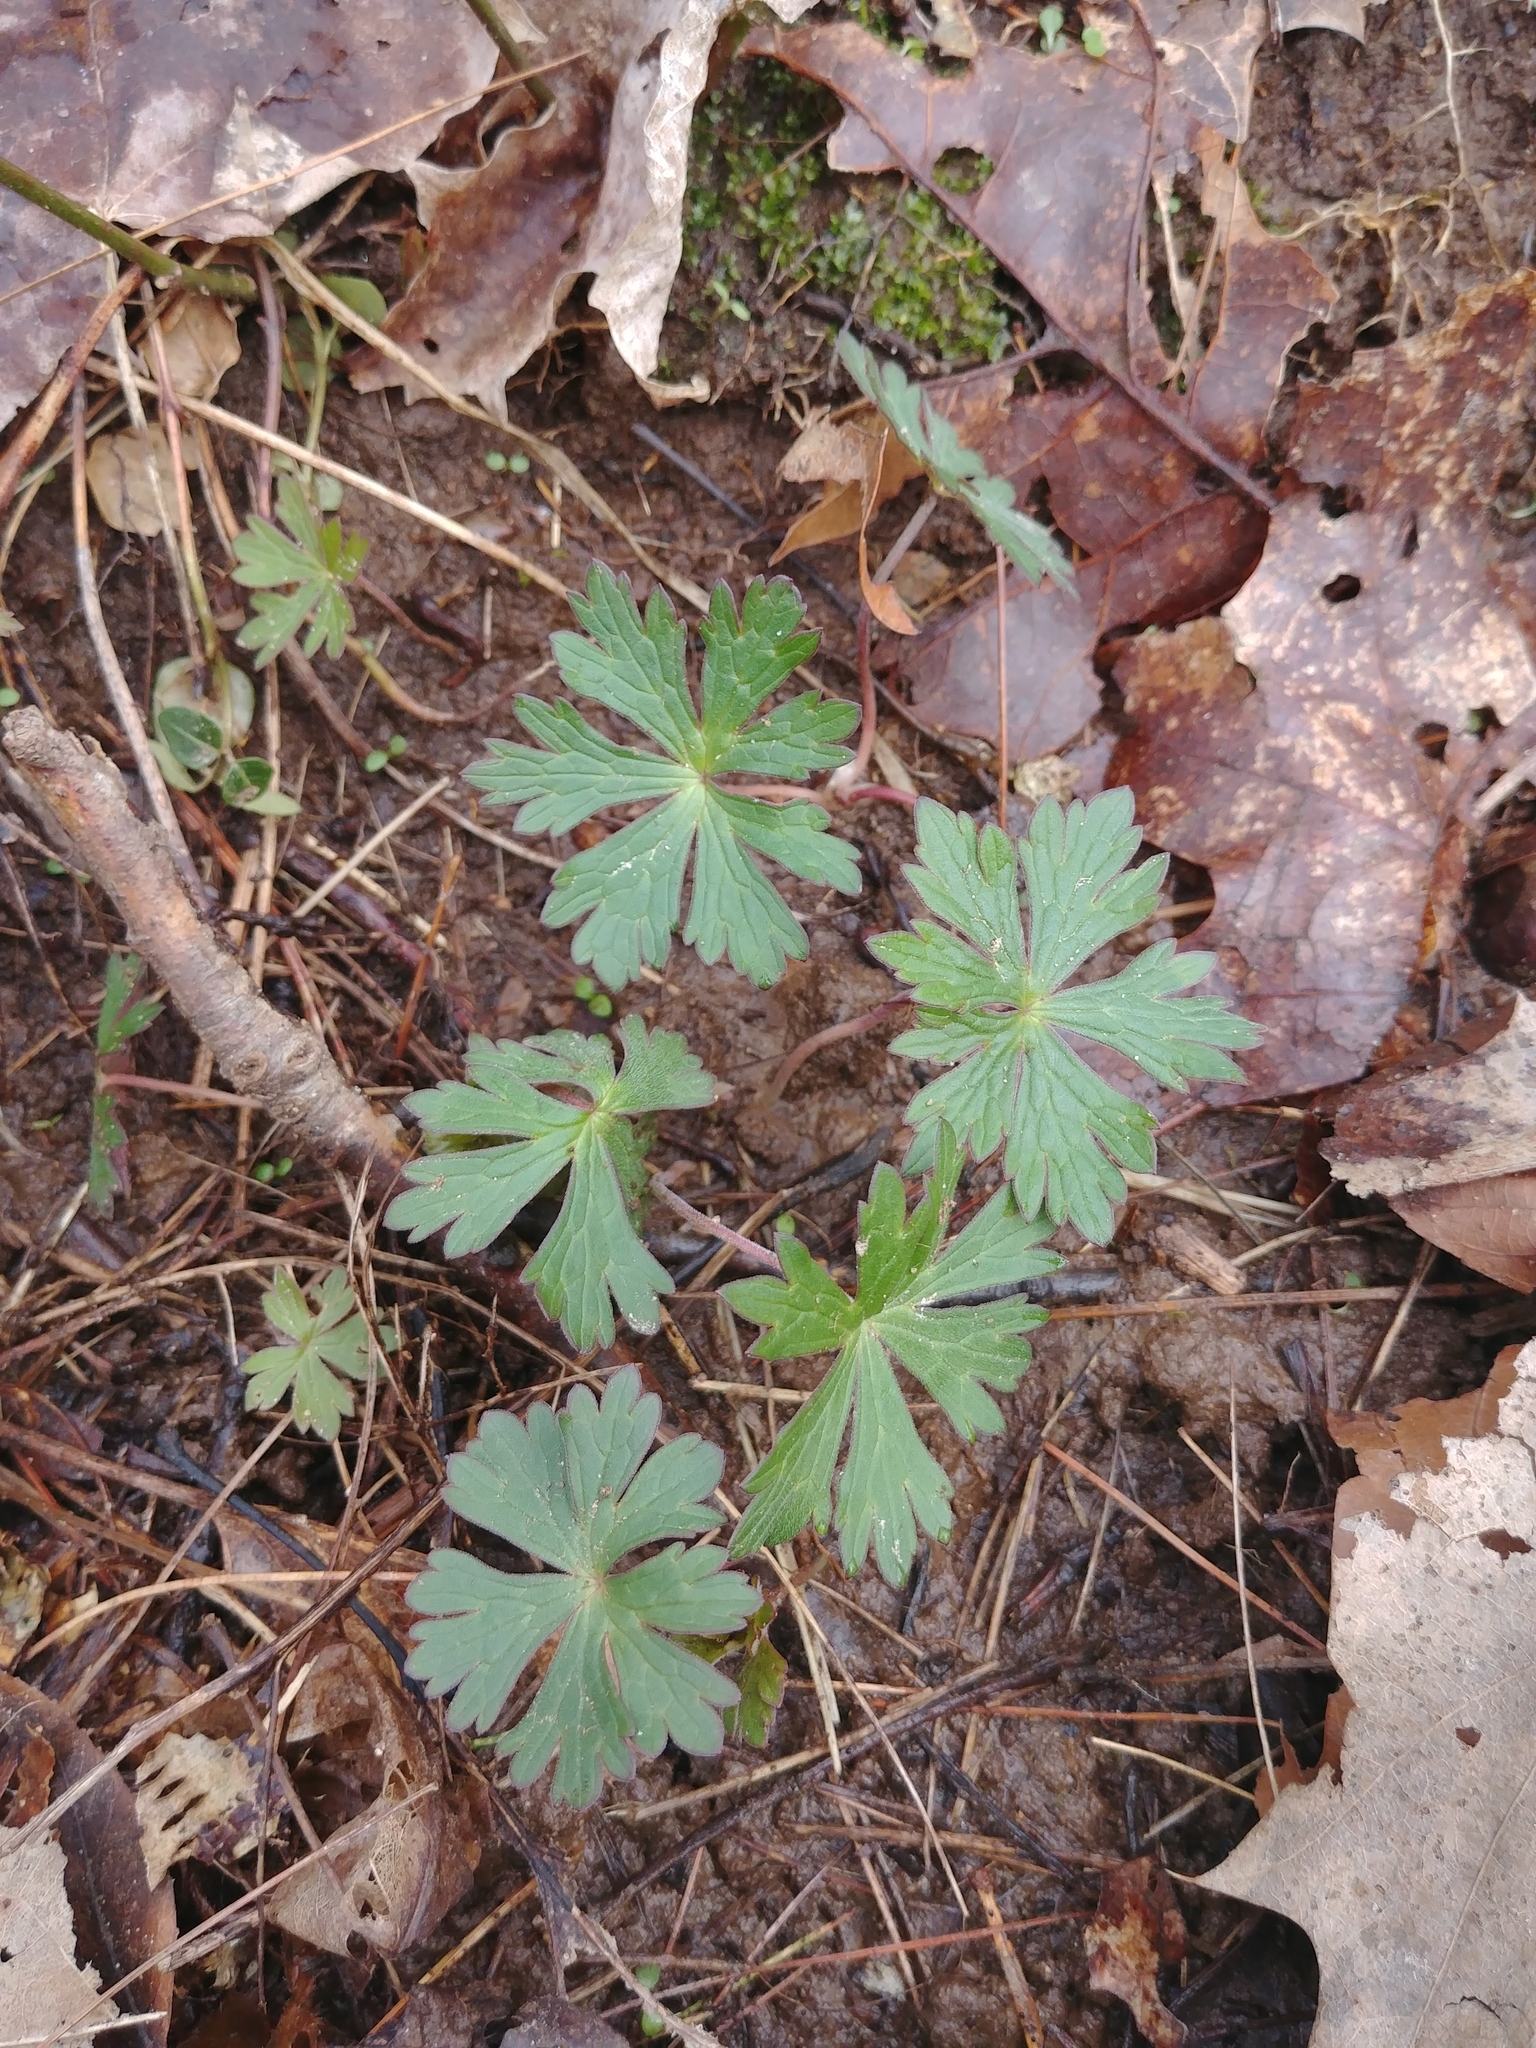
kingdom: Plantae
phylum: Tracheophyta
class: Magnoliopsida
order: Geraniales
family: Geraniaceae
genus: Geranium
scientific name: Geranium maculatum
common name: Spotted geranium
